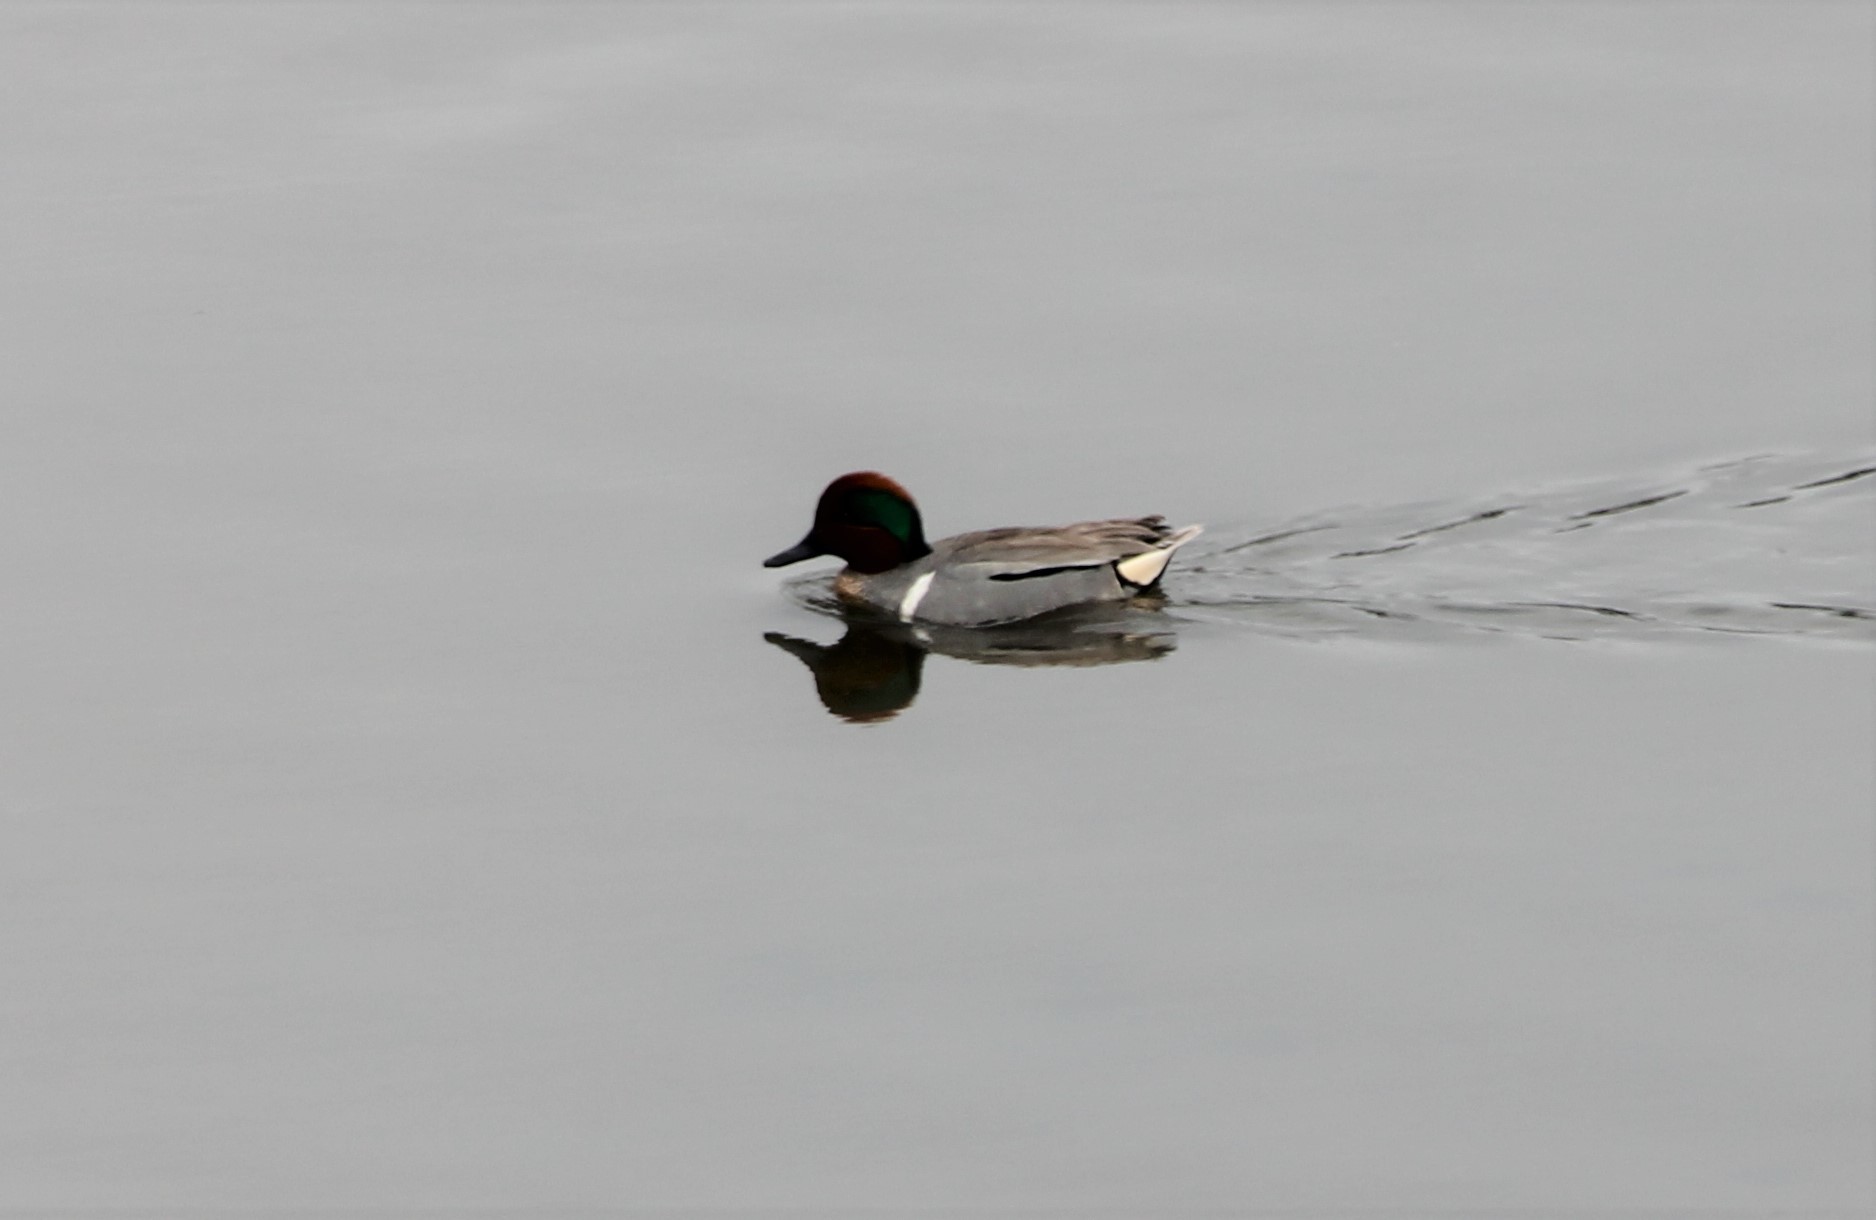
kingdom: Animalia
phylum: Chordata
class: Aves
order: Anseriformes
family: Anatidae
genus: Anas
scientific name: Anas crecca
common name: Eurasian teal
